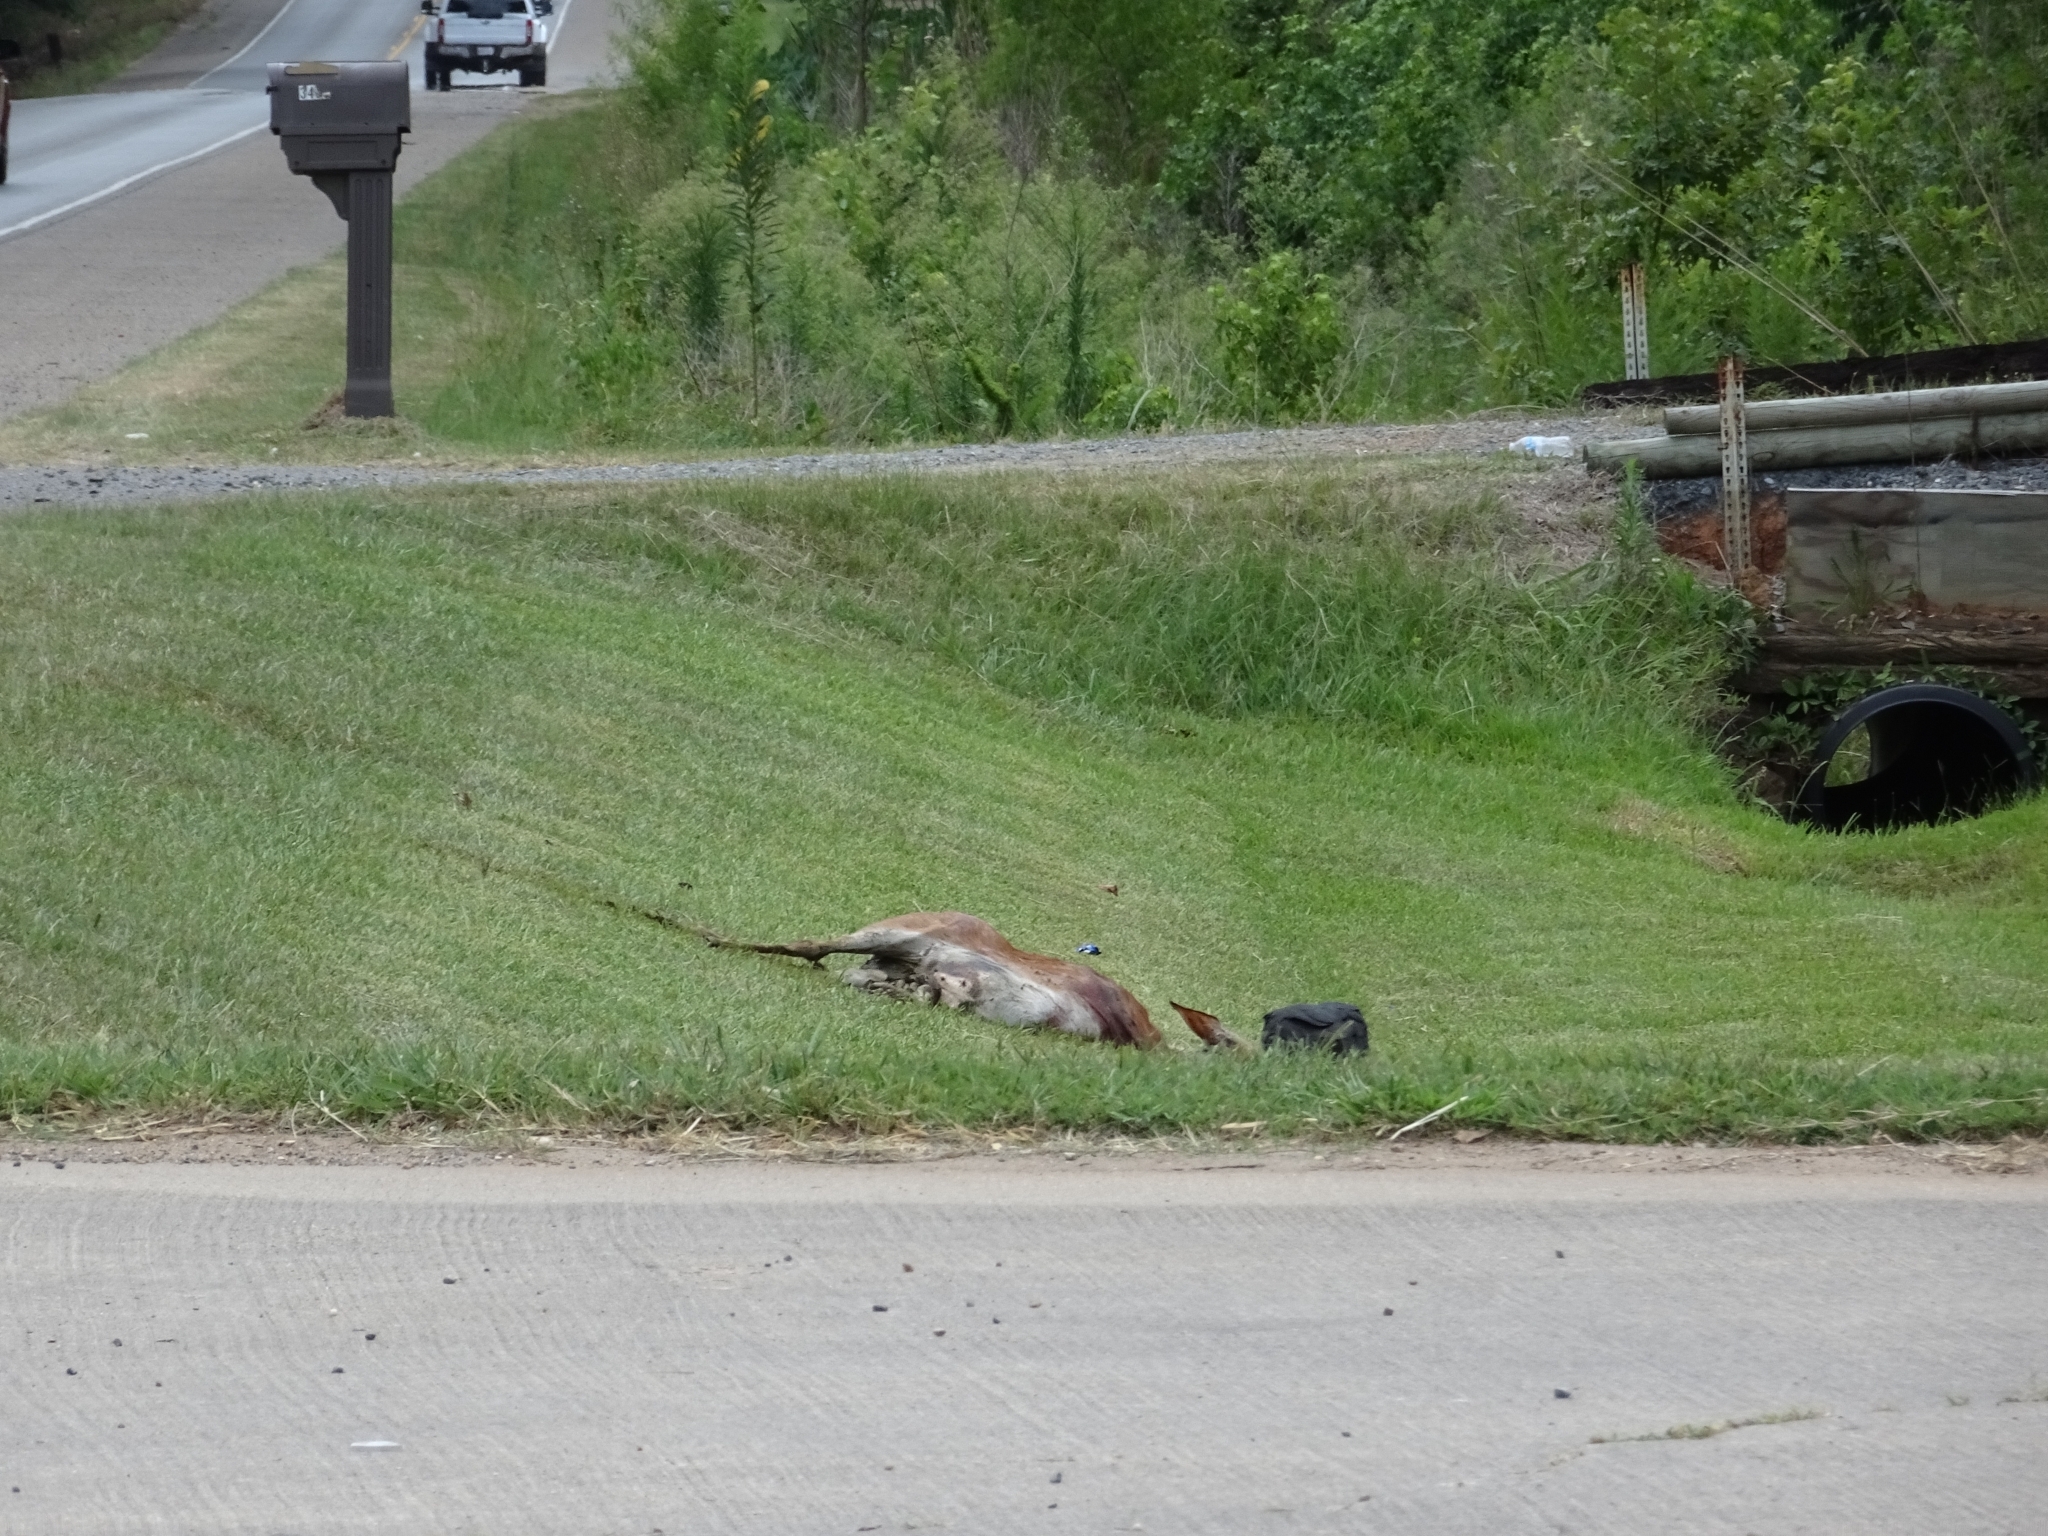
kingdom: Animalia
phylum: Chordata
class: Mammalia
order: Artiodactyla
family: Cervidae
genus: Odocoileus
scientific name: Odocoileus virginianus
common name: White-tailed deer
